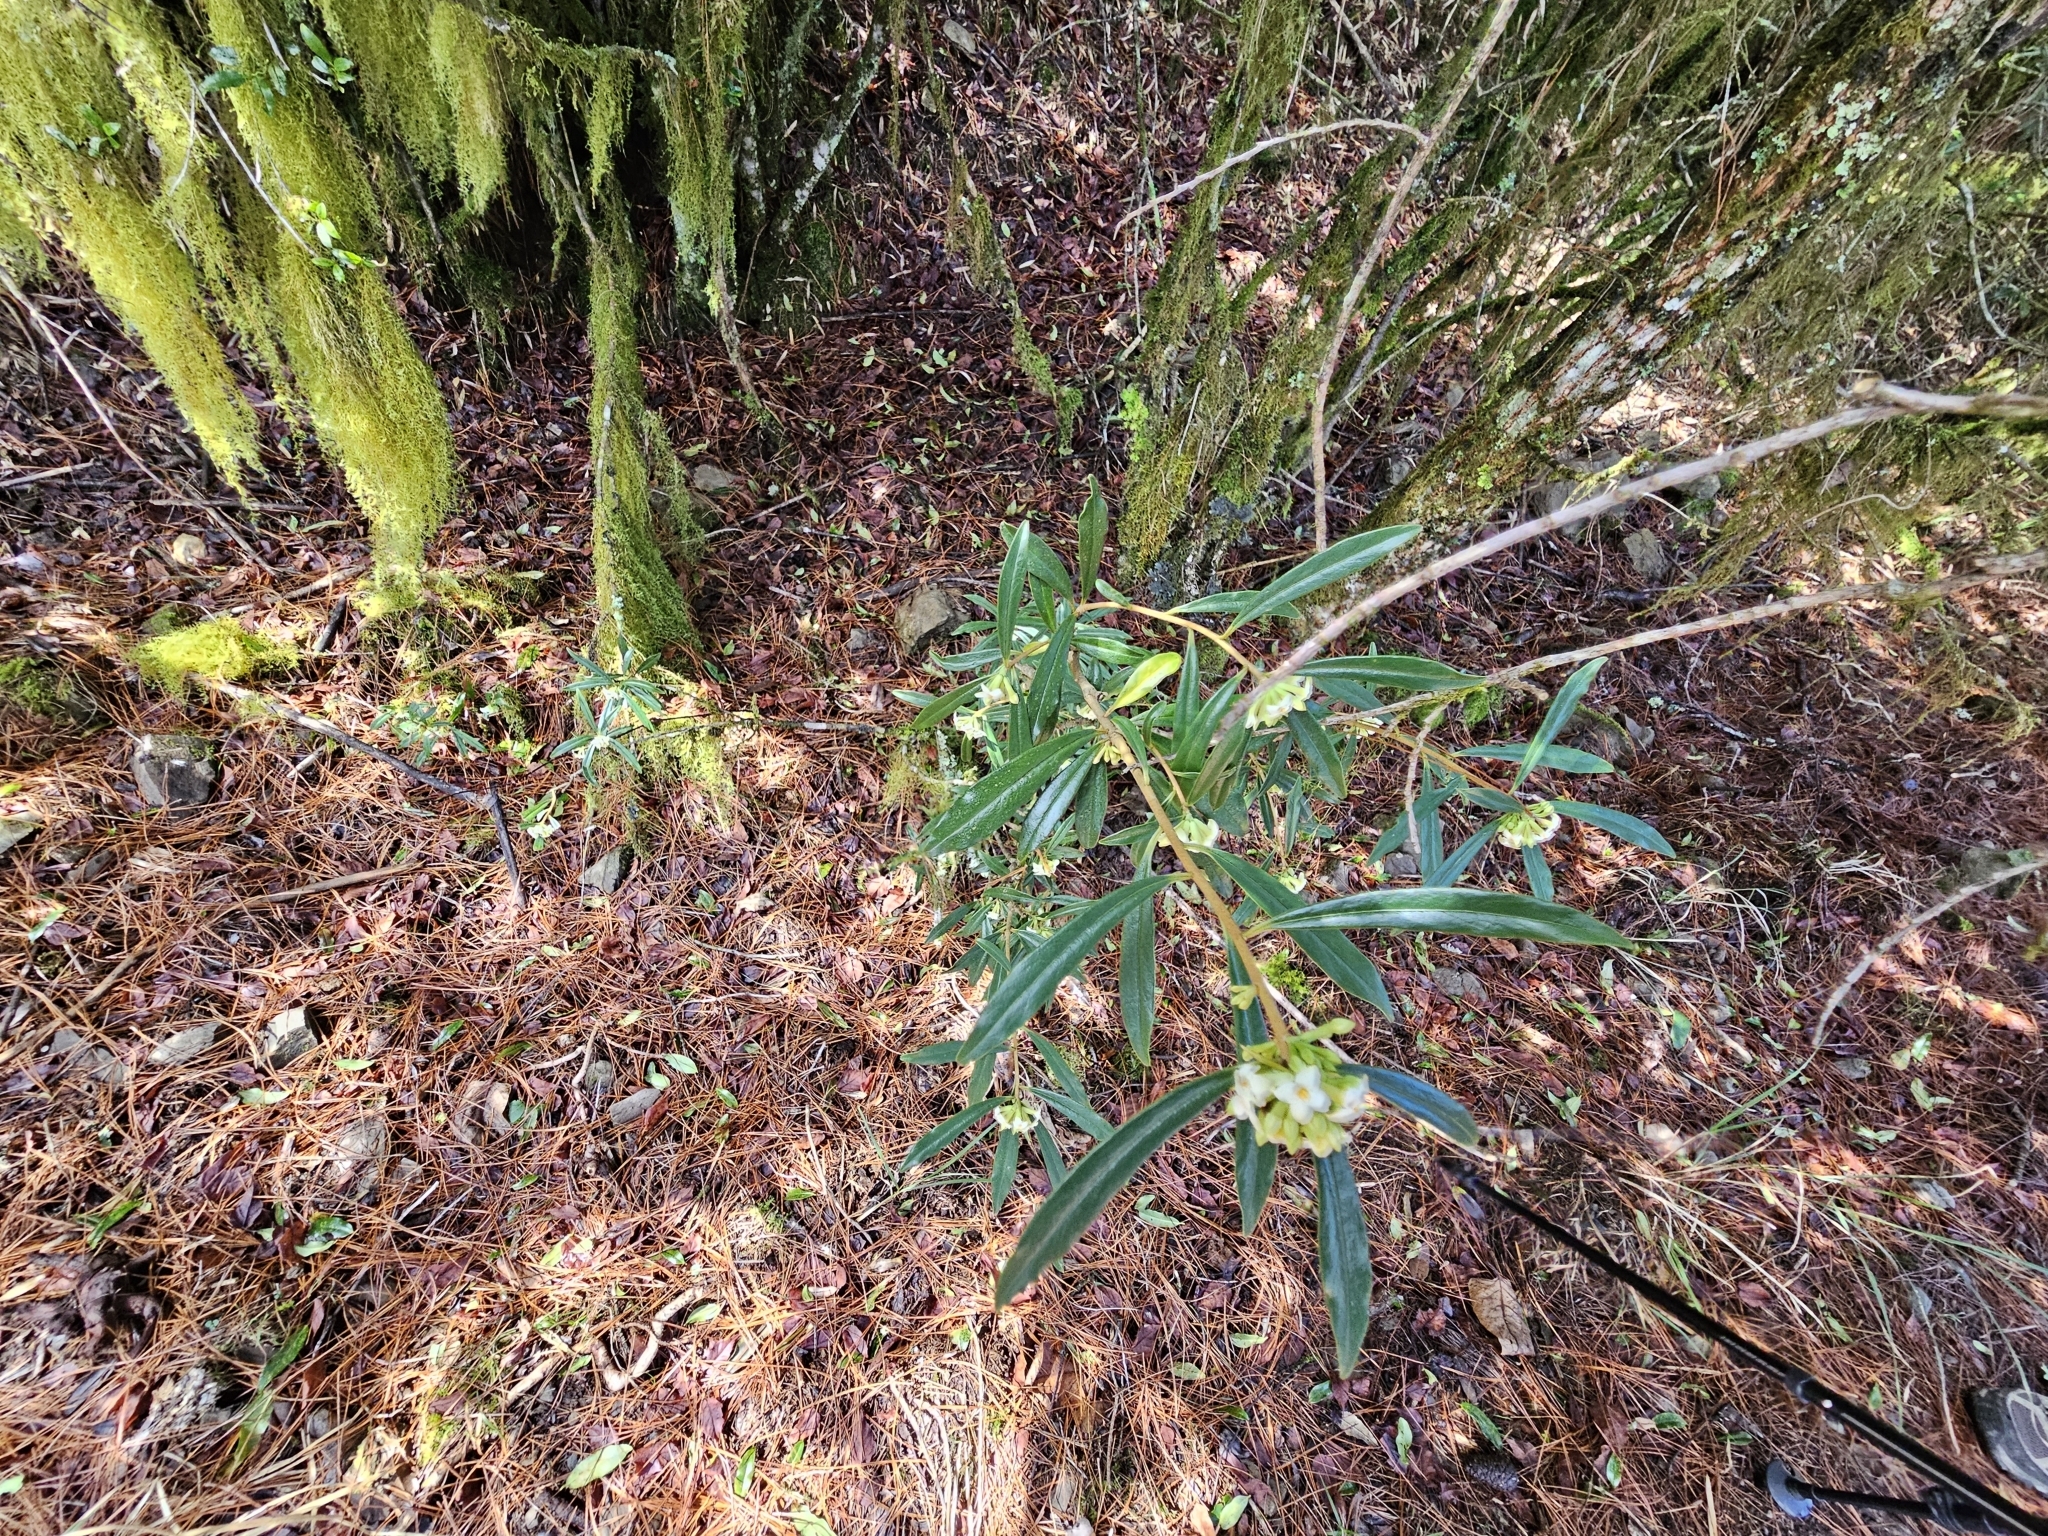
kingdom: Plantae
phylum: Tracheophyta
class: Magnoliopsida
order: Malvales
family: Thymelaeaceae
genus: Daphne
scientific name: Daphne arisanensis
